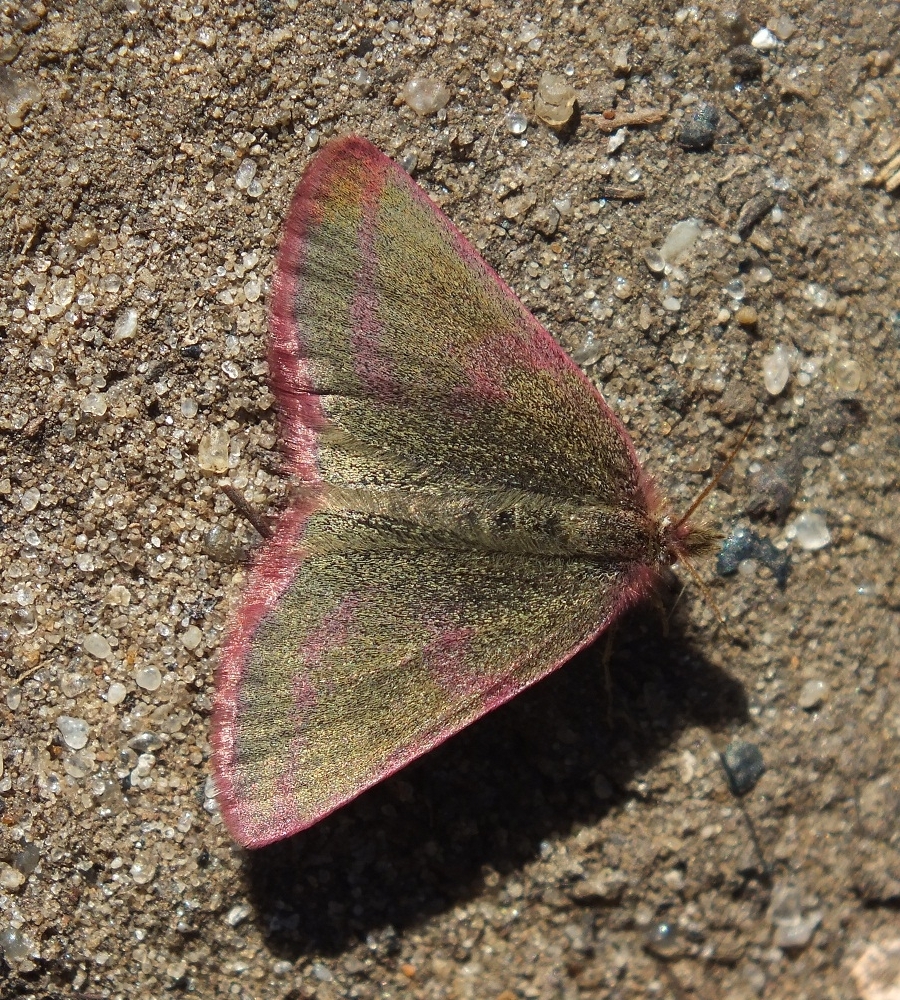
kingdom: Animalia
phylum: Arthropoda
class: Insecta
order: Lepidoptera
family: Geometridae
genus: Lythria
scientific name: Lythria purpuraria
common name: Purple-barred yellow
